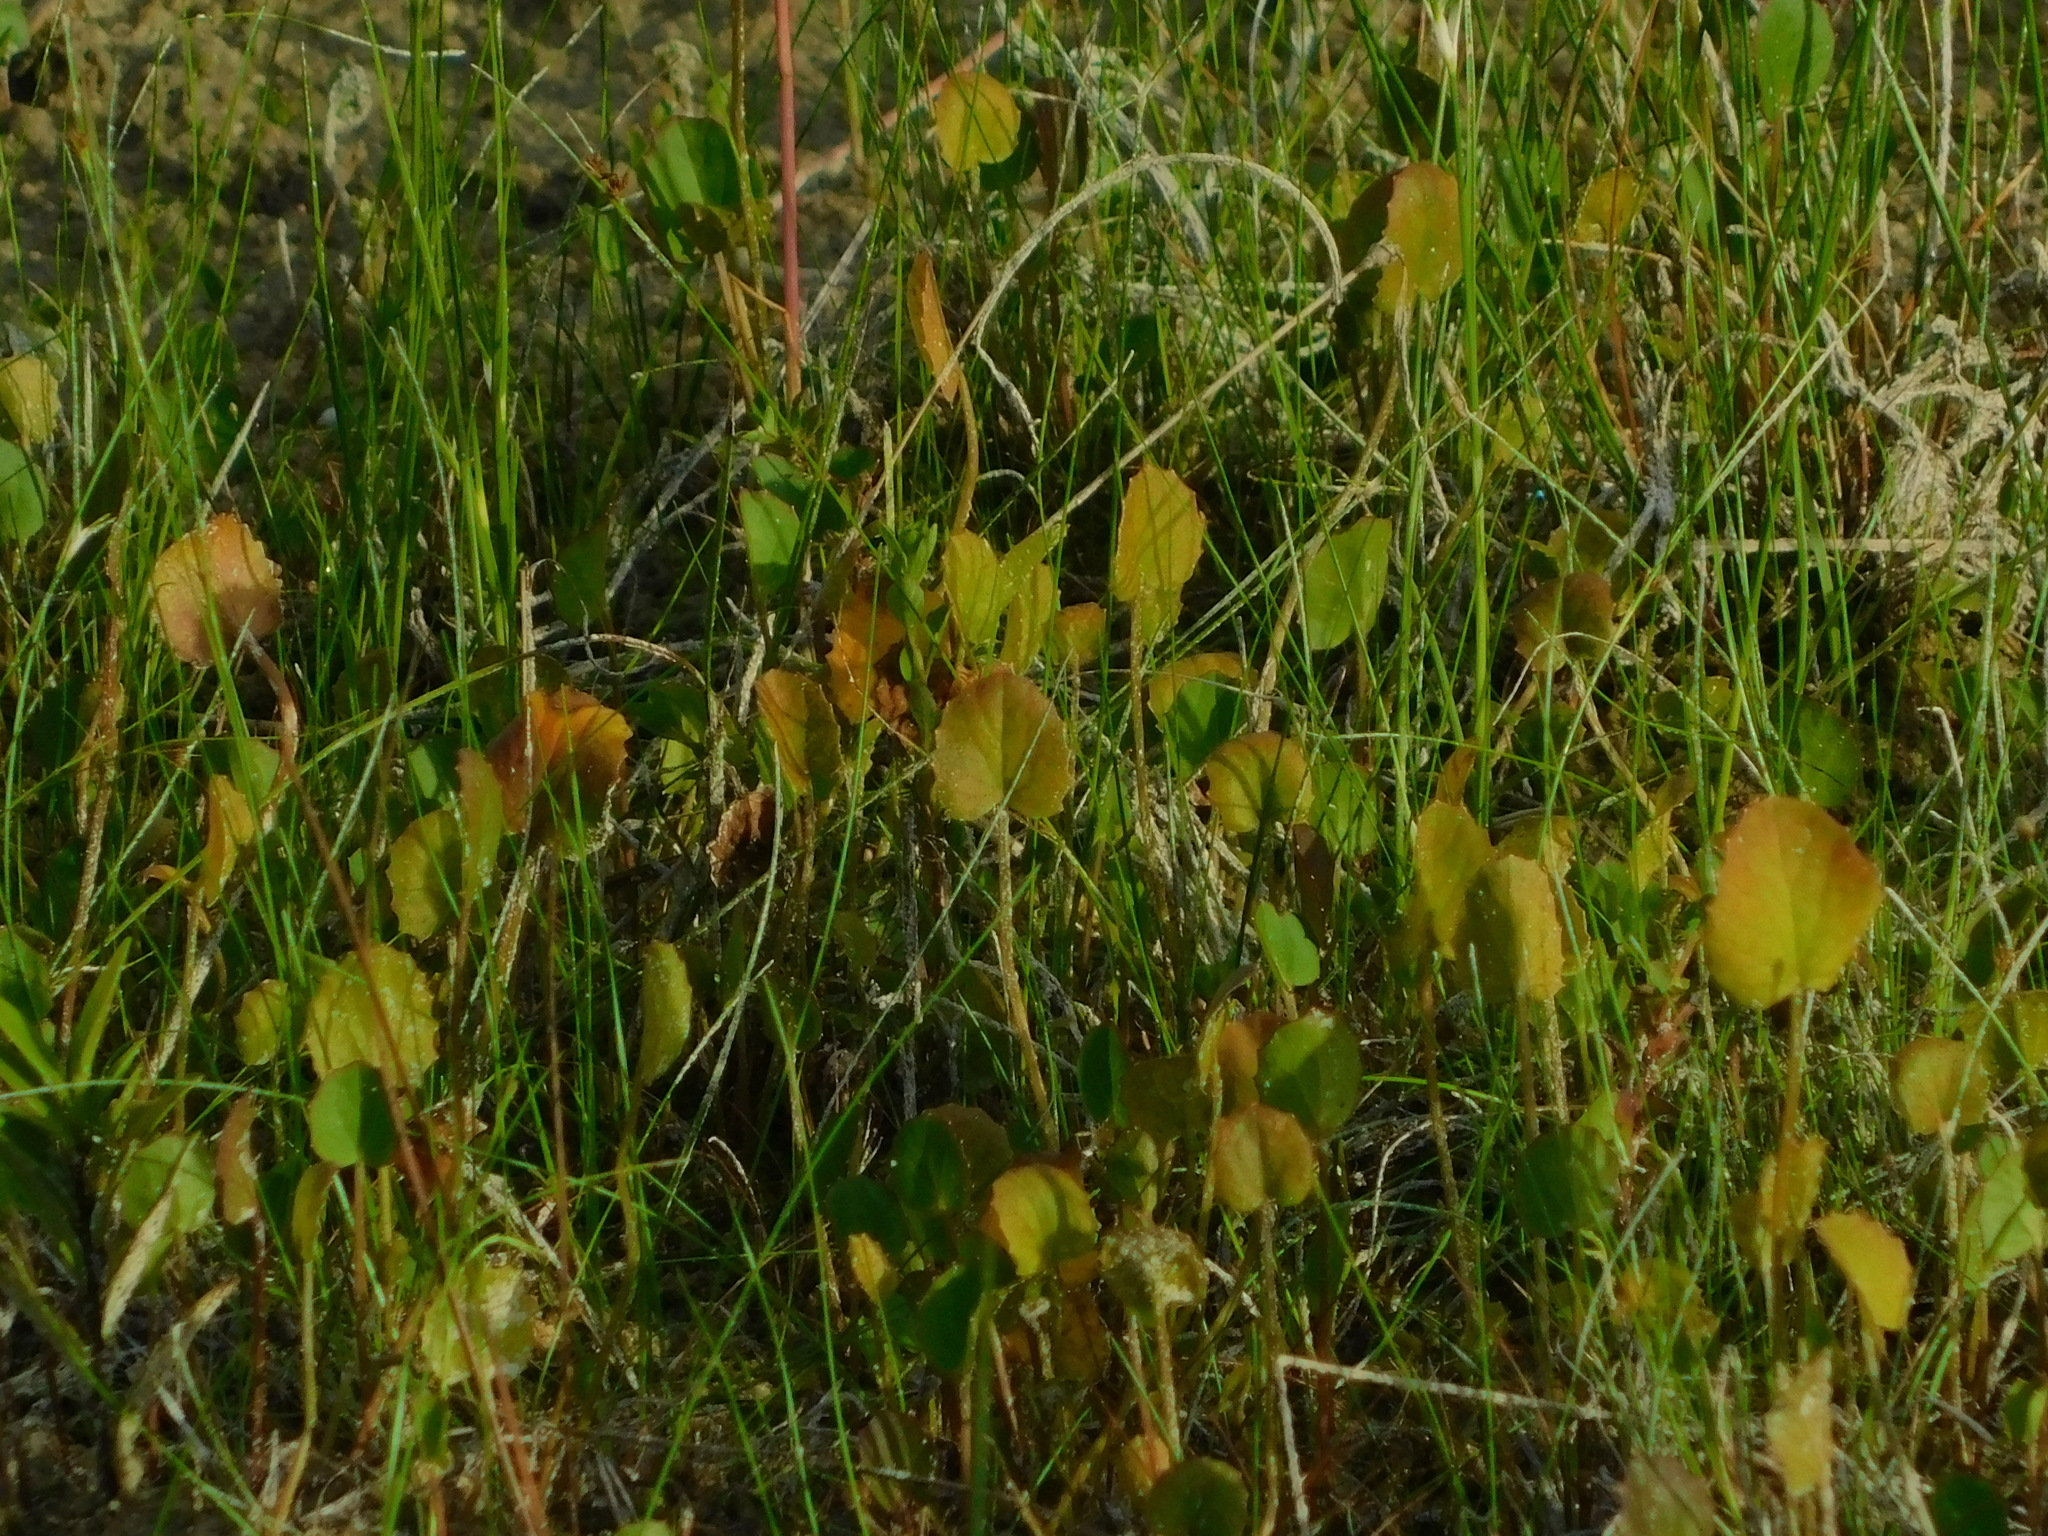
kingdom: Plantae
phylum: Tracheophyta
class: Magnoliopsida
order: Apiales
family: Apiaceae
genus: Centella
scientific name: Centella erecta
